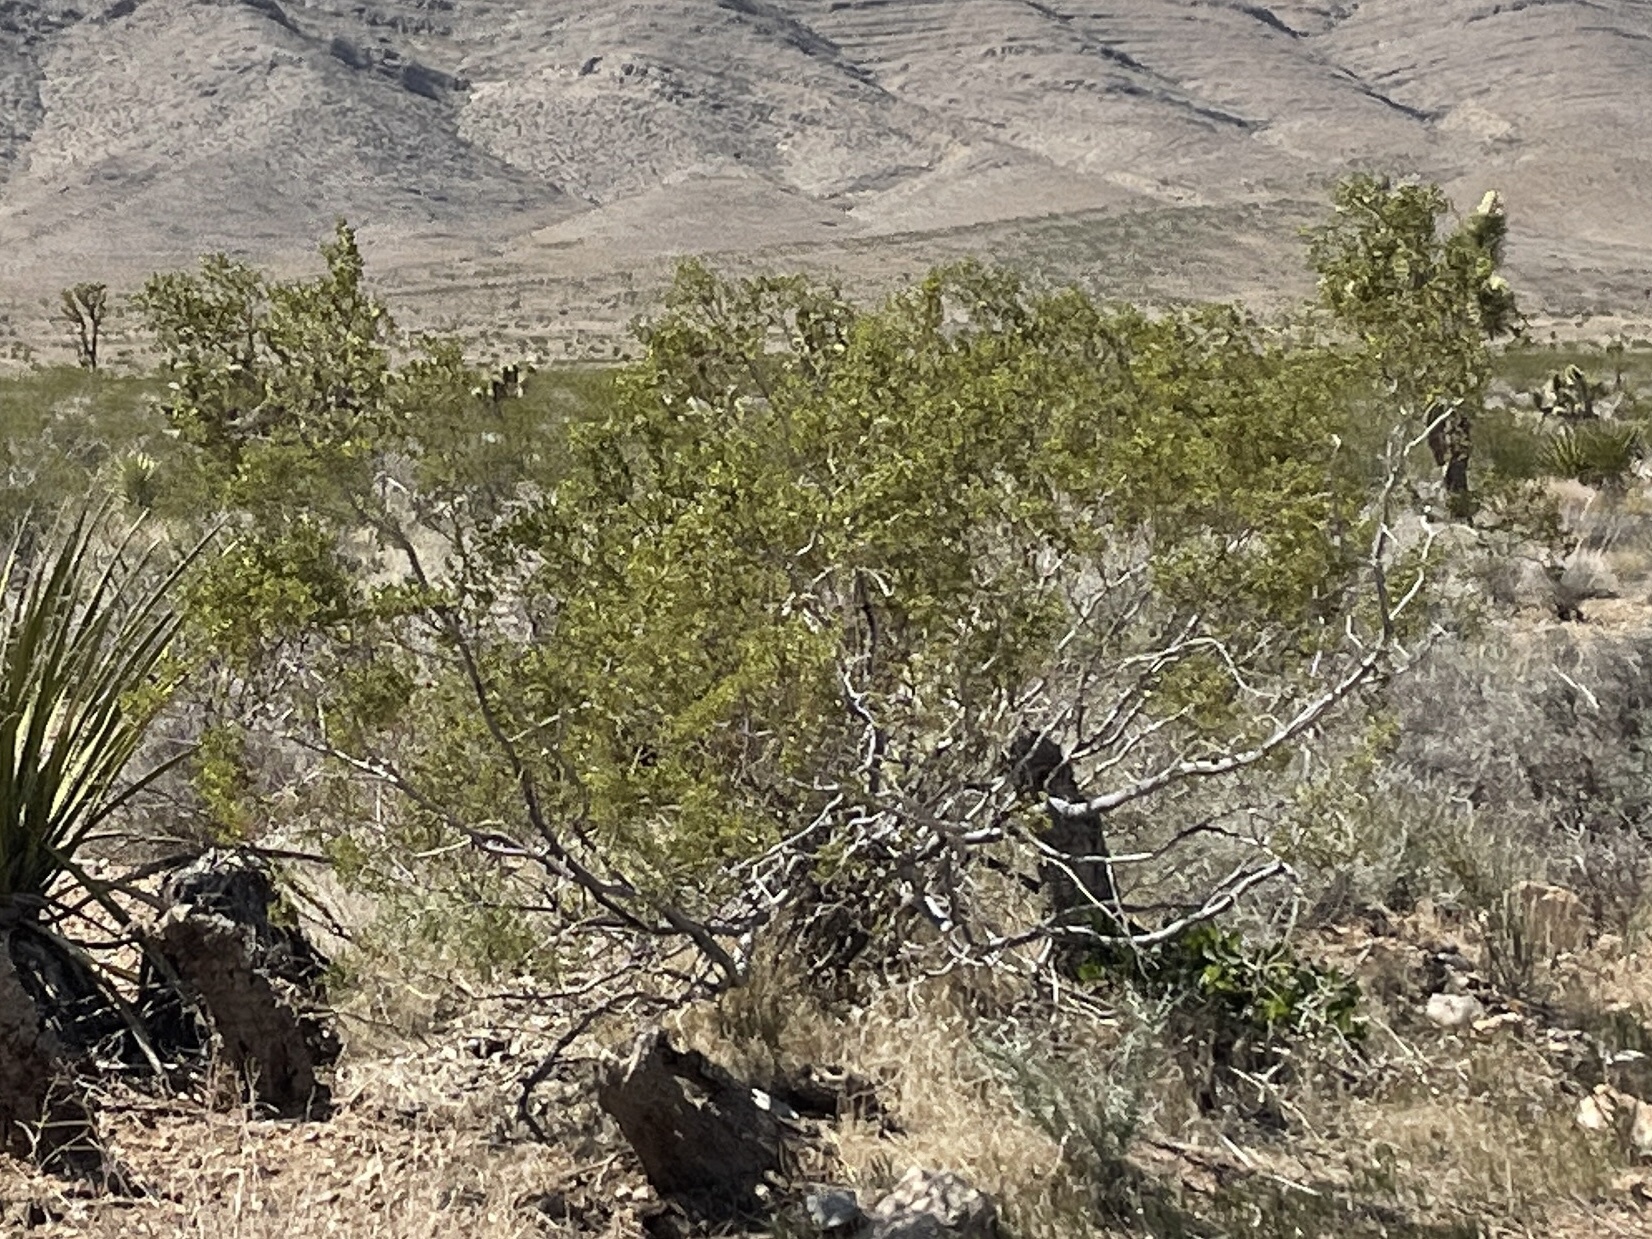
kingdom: Plantae
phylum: Tracheophyta
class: Magnoliopsida
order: Zygophyllales
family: Zygophyllaceae
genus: Larrea
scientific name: Larrea tridentata
